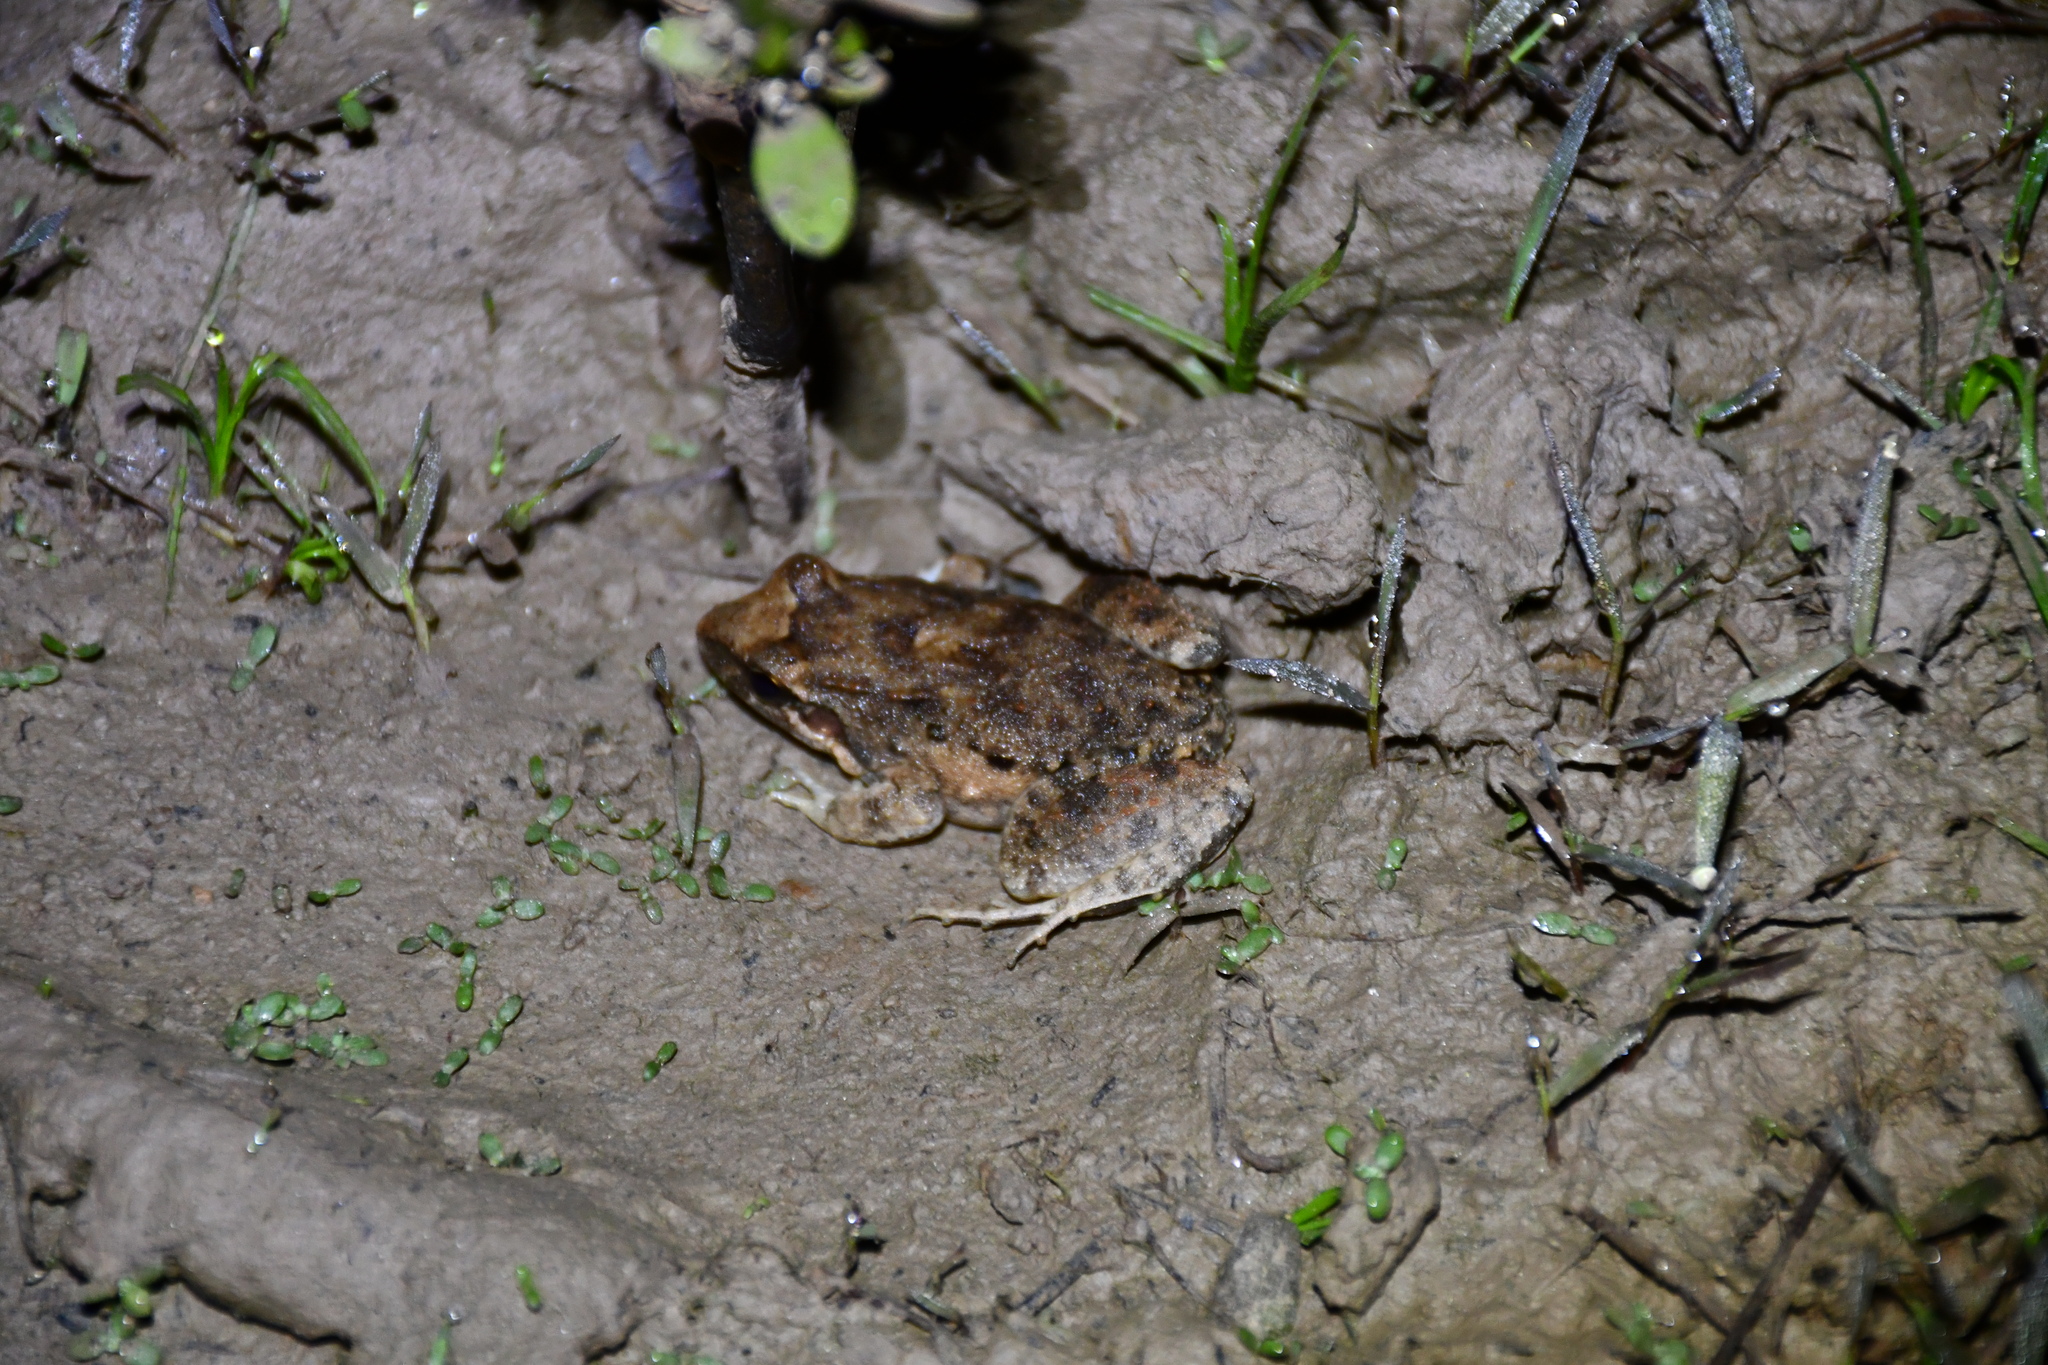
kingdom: Animalia
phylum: Chordata
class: Amphibia
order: Anura
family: Leptodactylidae
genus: Leptodactylus
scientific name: Leptodactylus petersii
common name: Peters' thin-toed frog
